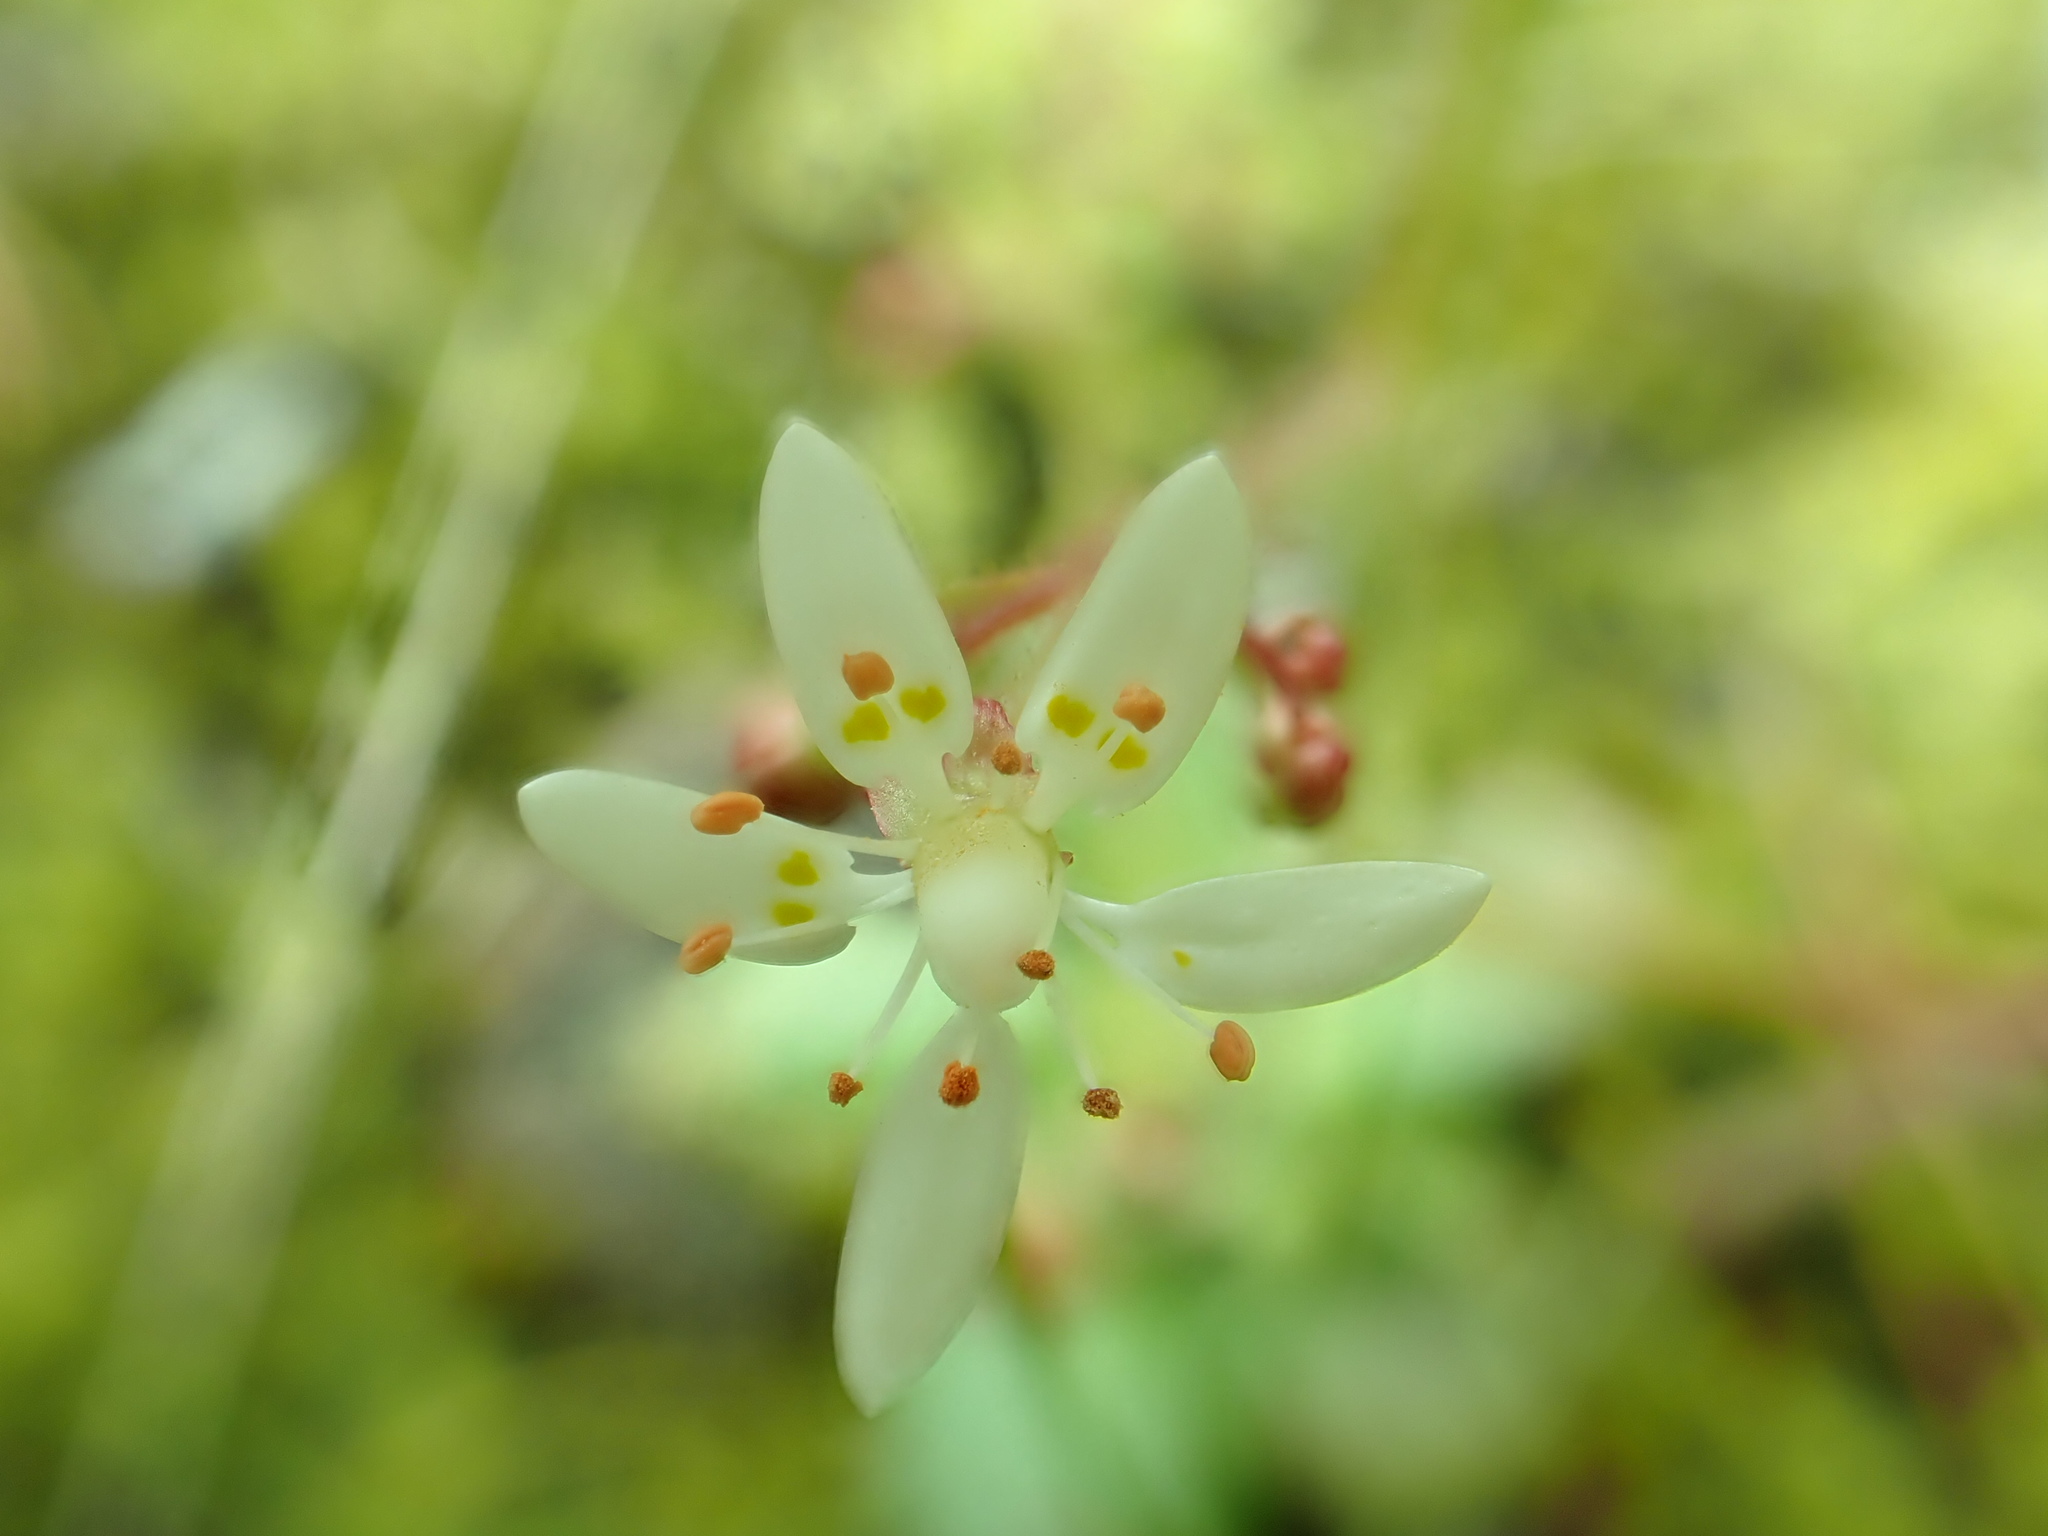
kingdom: Plantae
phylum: Tracheophyta
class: Magnoliopsida
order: Saxifragales
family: Saxifragaceae
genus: Micranthes
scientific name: Micranthes ferruginea
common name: Rusty saxifrage
